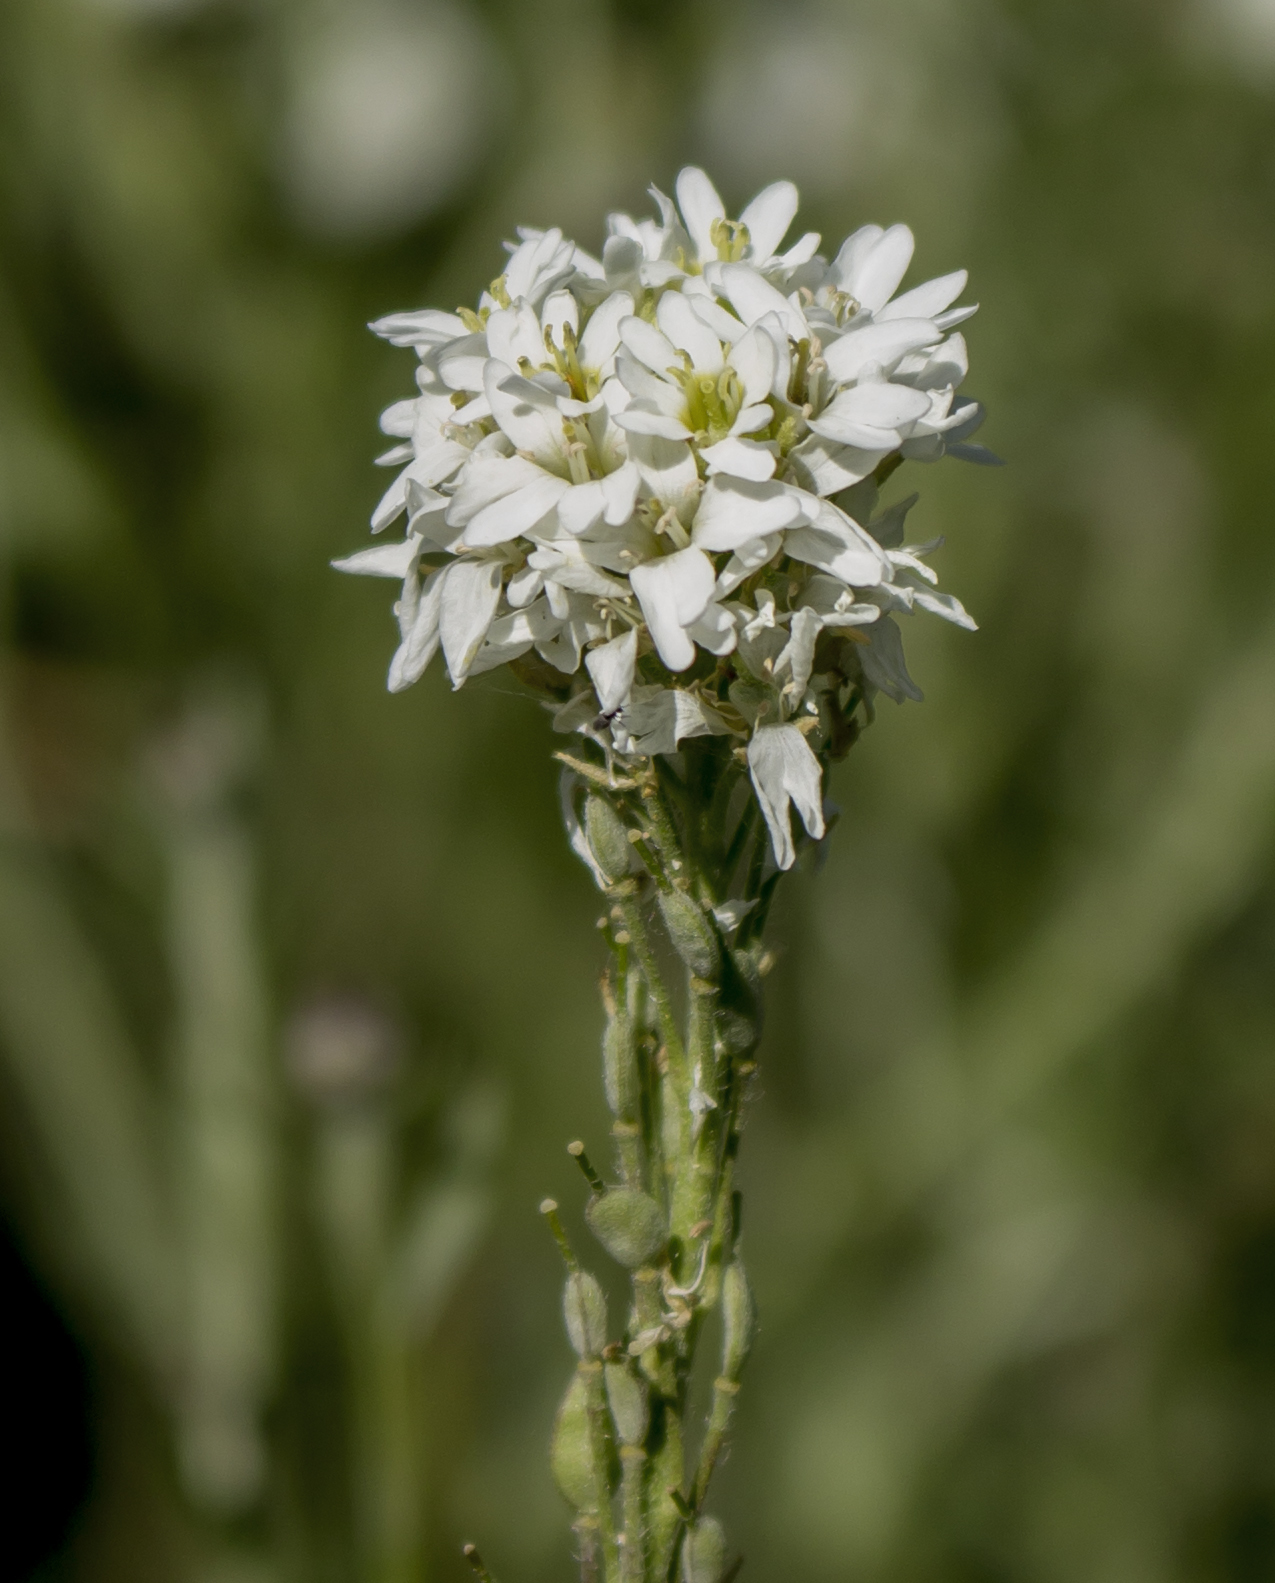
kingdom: Plantae
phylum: Tracheophyta
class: Magnoliopsida
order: Brassicales
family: Brassicaceae
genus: Berteroa
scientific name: Berteroa incana
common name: Hoary alison
